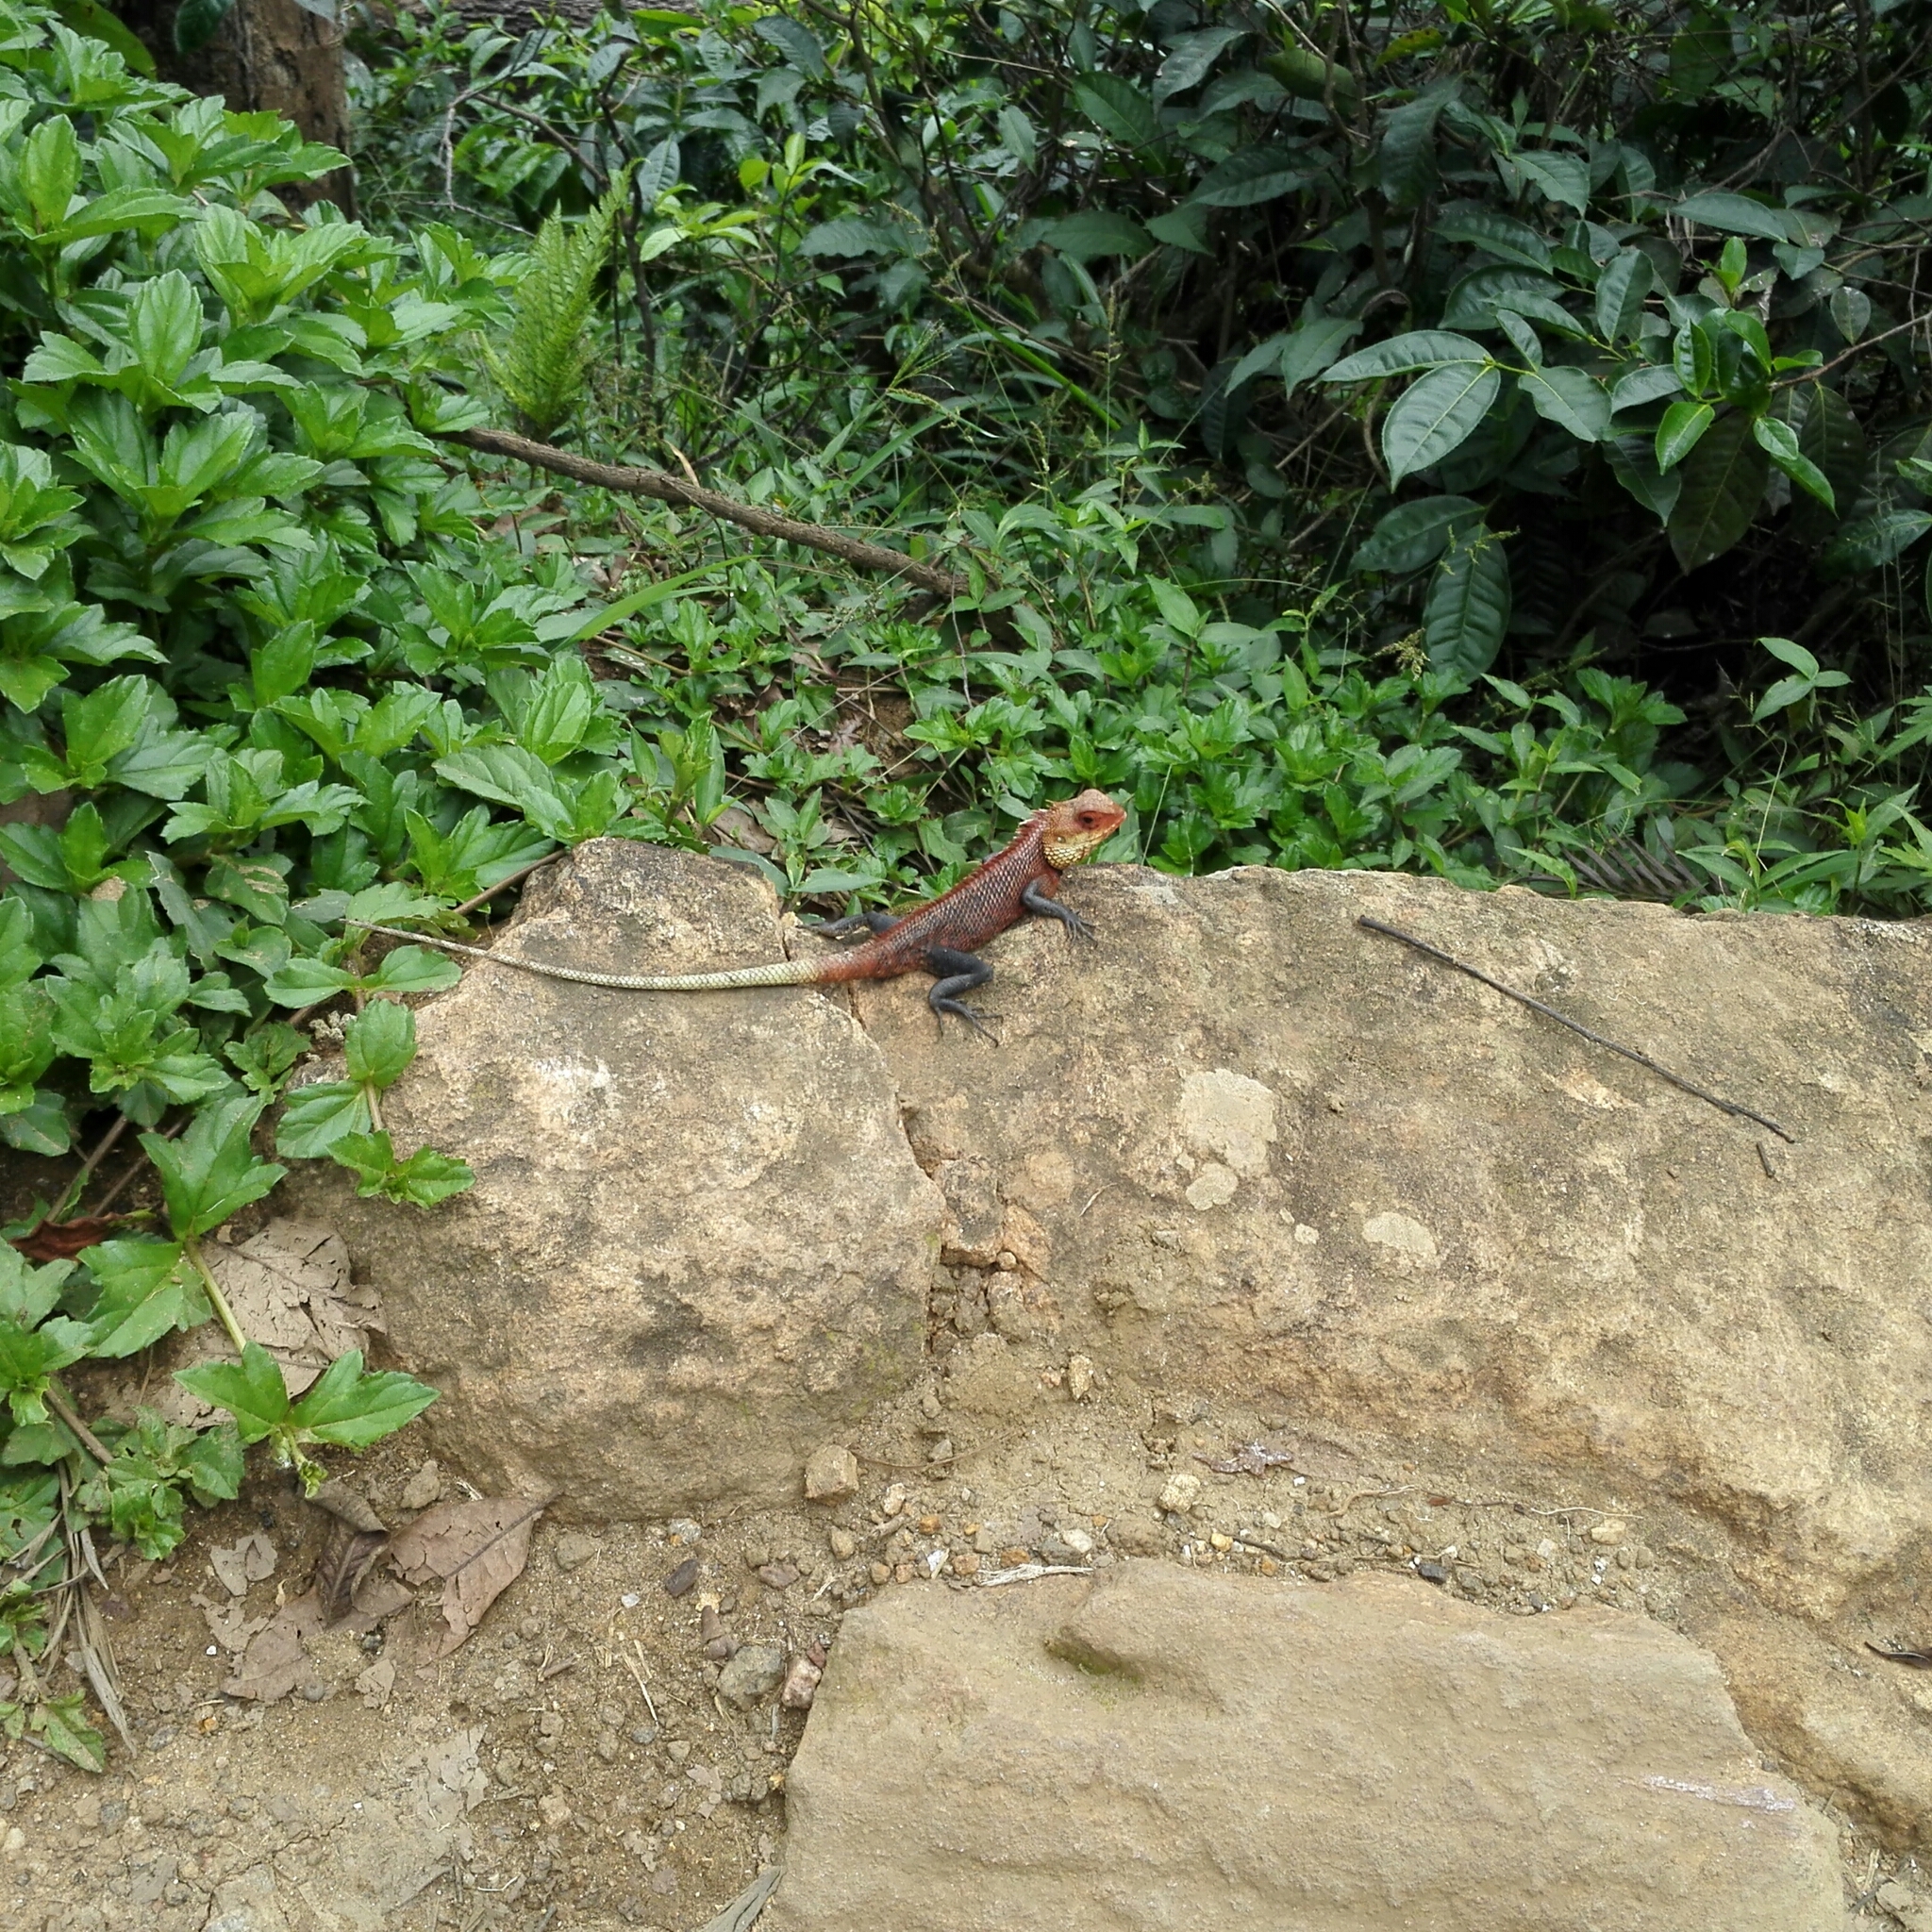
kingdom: Animalia
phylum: Chordata
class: Squamata
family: Agamidae
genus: Calotes
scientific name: Calotes versicolor
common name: Oriental garden lizard
